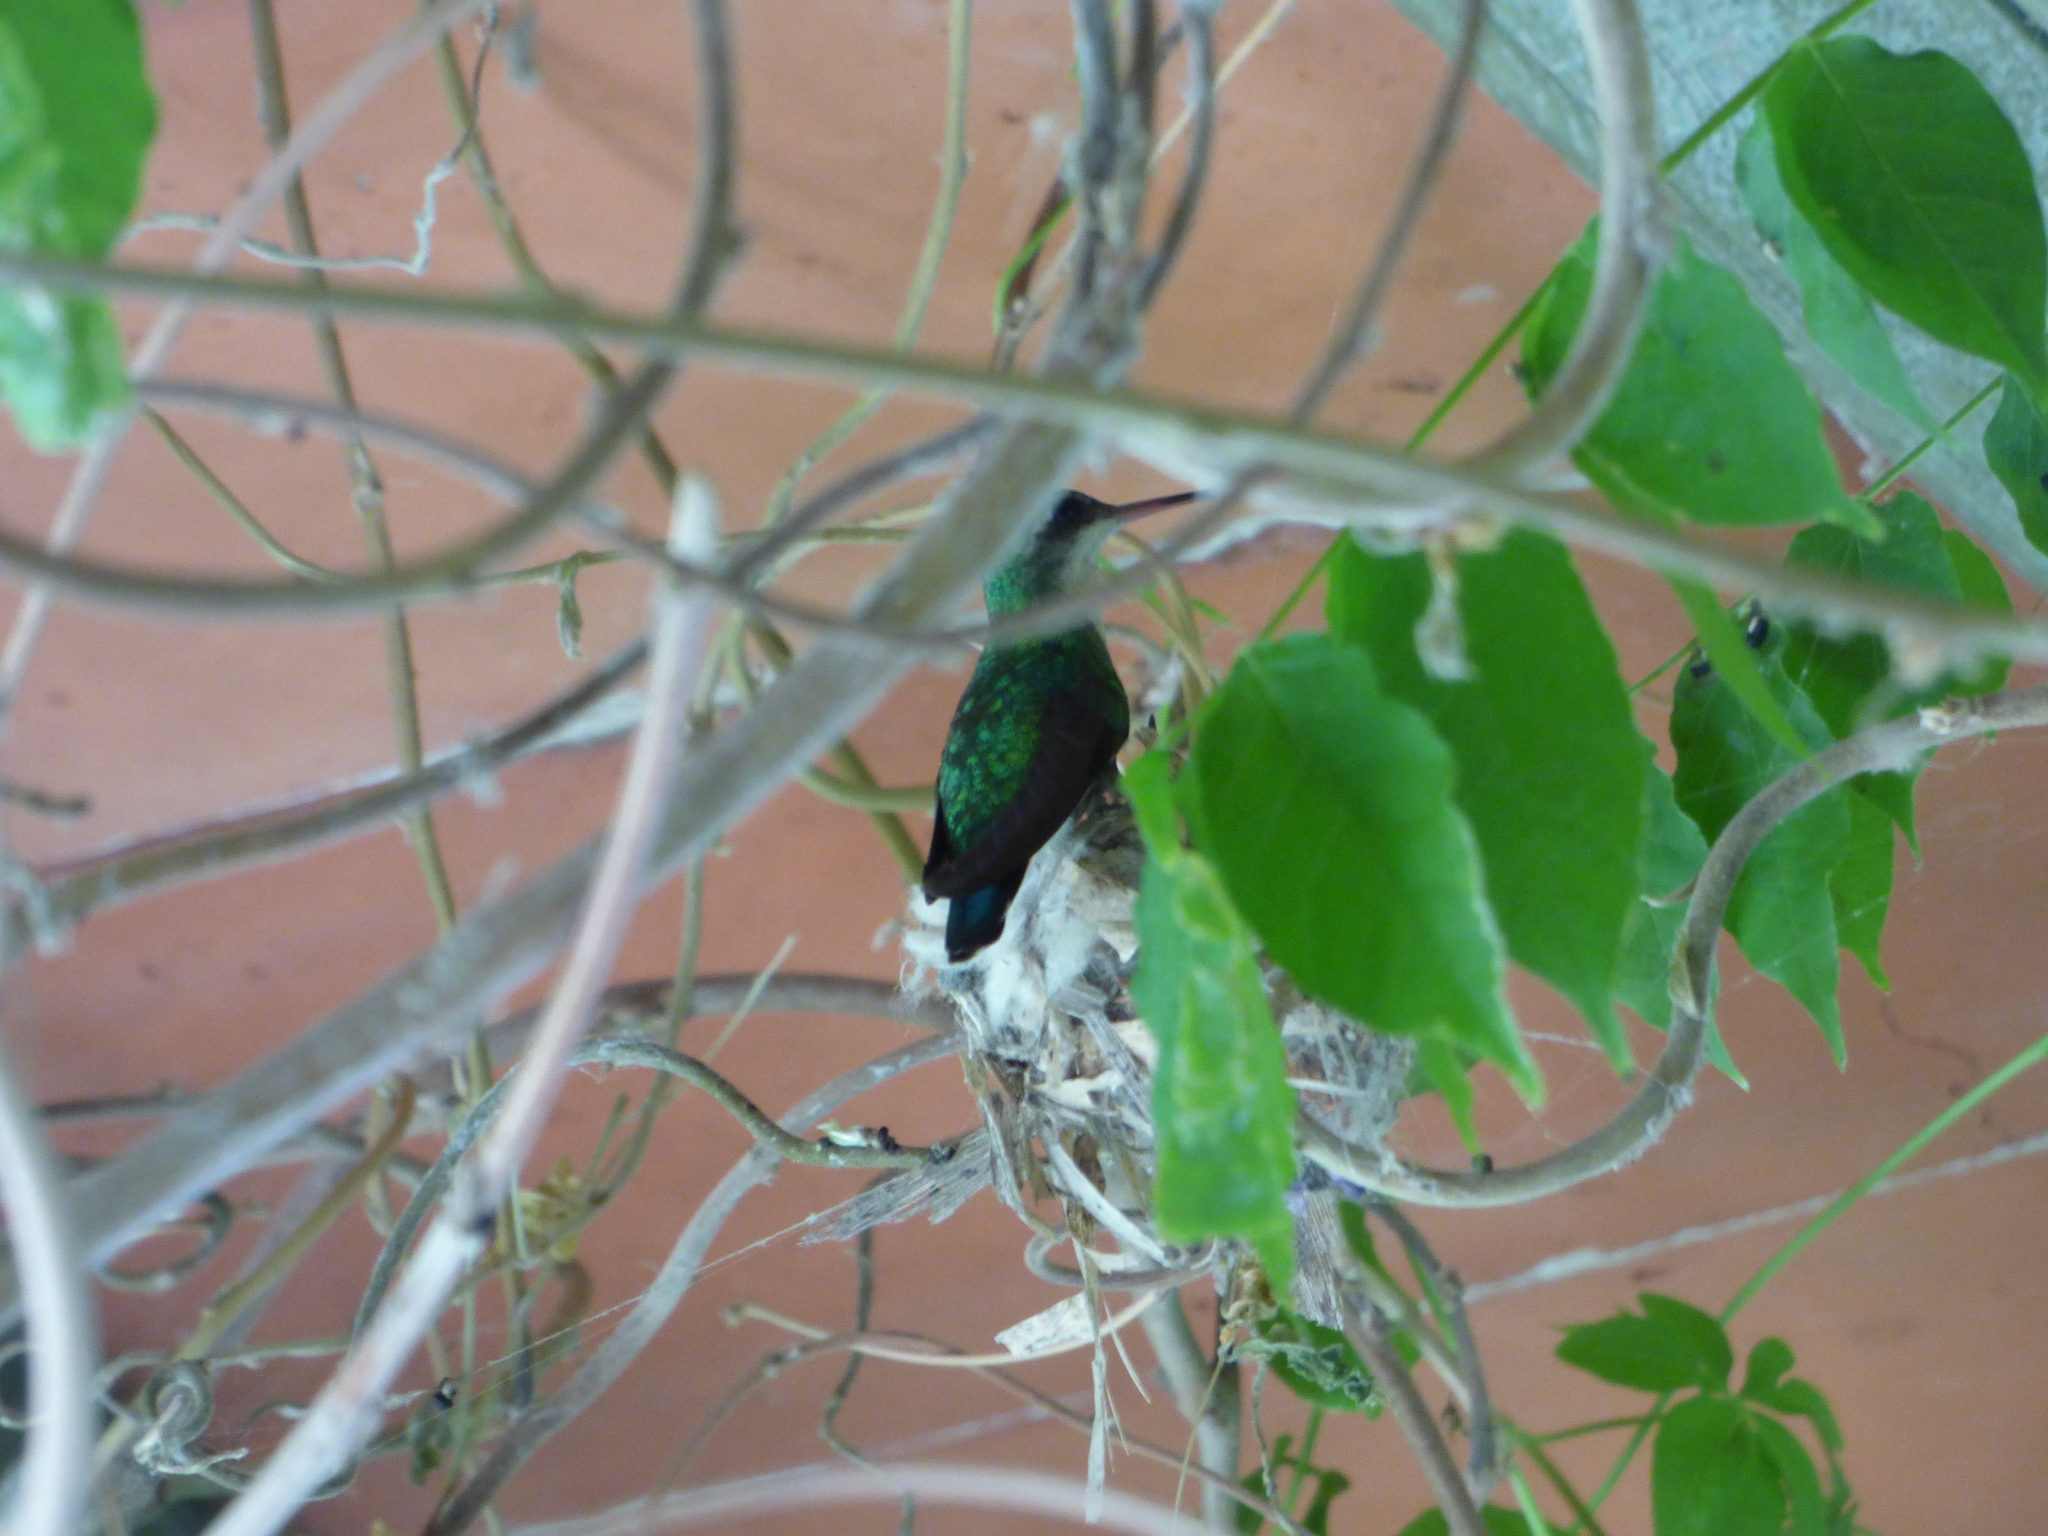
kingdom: Animalia
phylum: Chordata
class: Aves
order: Apodiformes
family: Trochilidae
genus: Chlorostilbon
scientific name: Chlorostilbon lucidus
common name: Glittering-bellied emerald
